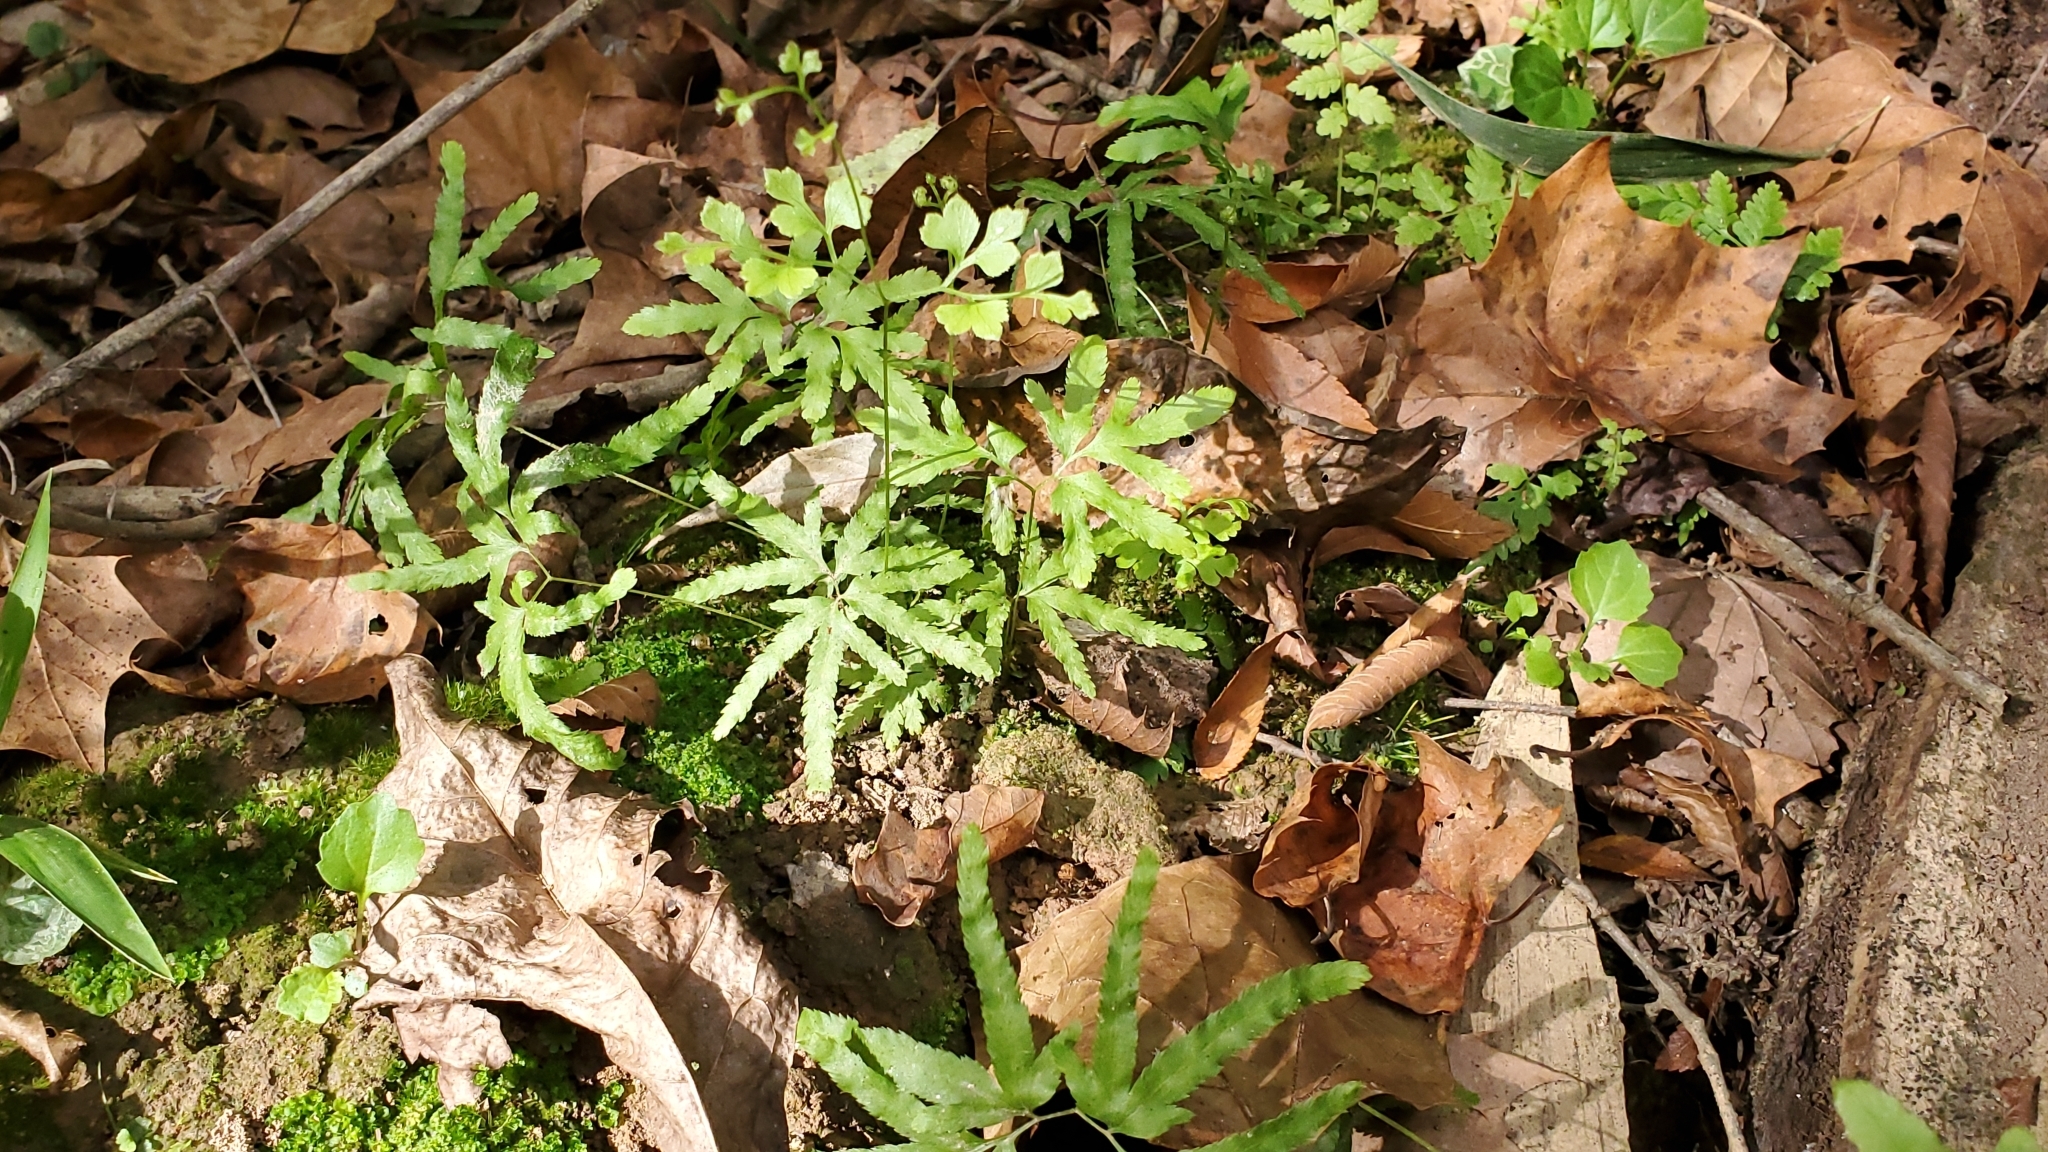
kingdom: Plantae
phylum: Tracheophyta
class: Polypodiopsida
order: Schizaeales
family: Lygodiaceae
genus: Lygodium
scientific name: Lygodium japonicum
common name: Japanese climbing fern
